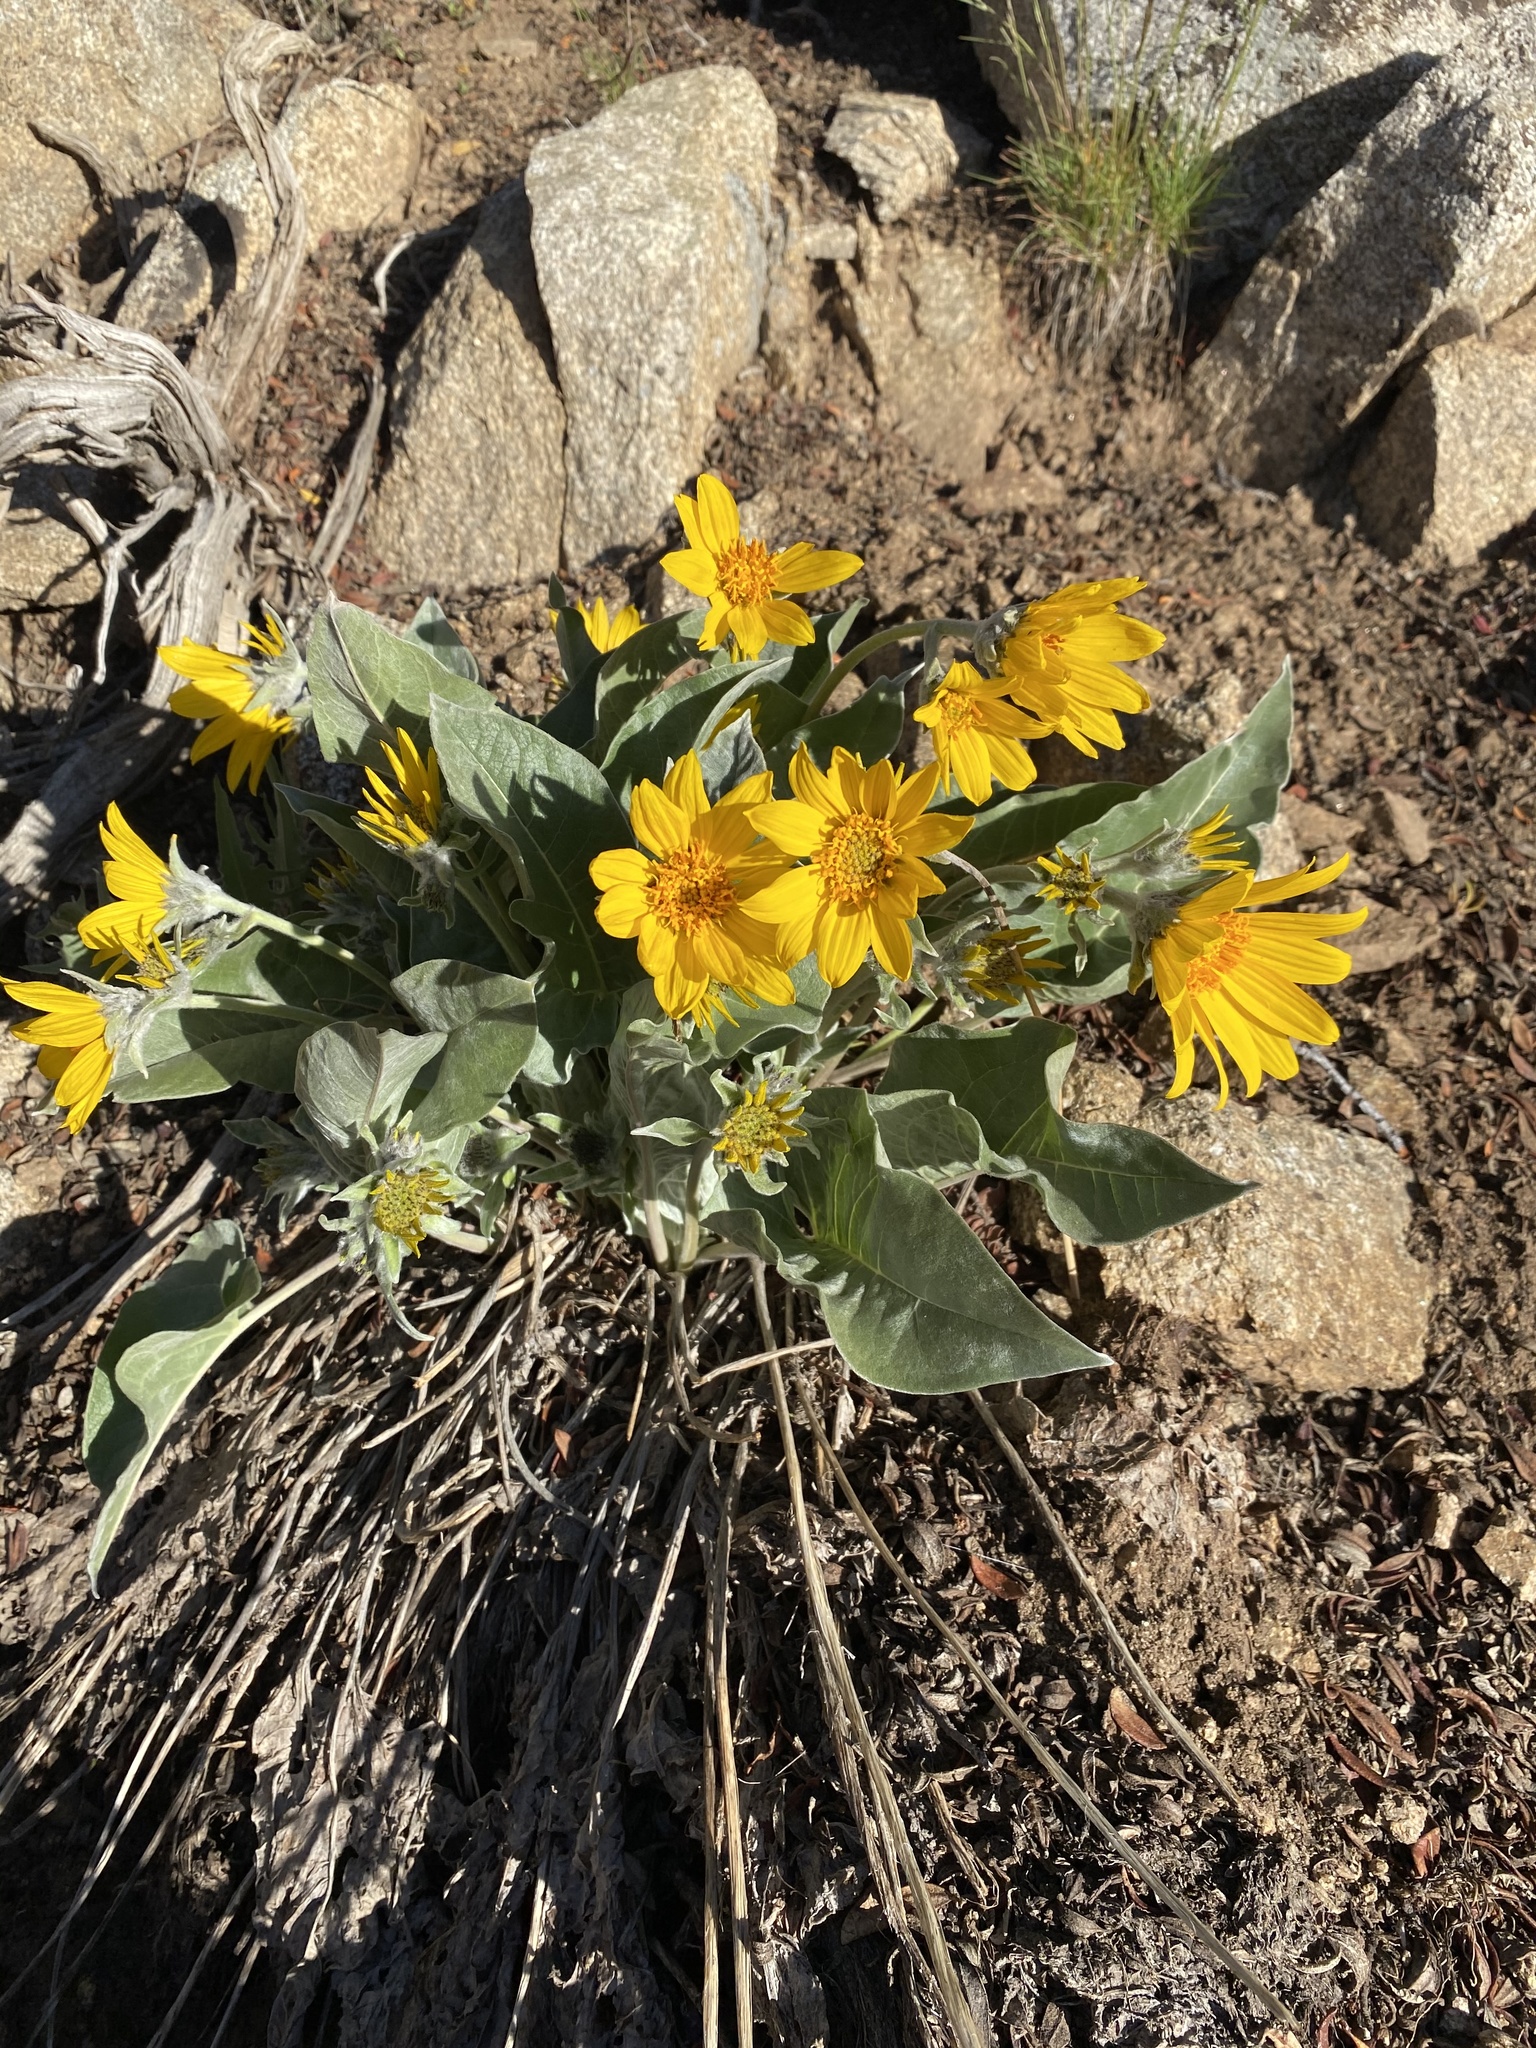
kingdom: Plantae
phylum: Tracheophyta
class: Magnoliopsida
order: Asterales
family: Asteraceae
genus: Wyethia
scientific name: Wyethia sagittata
